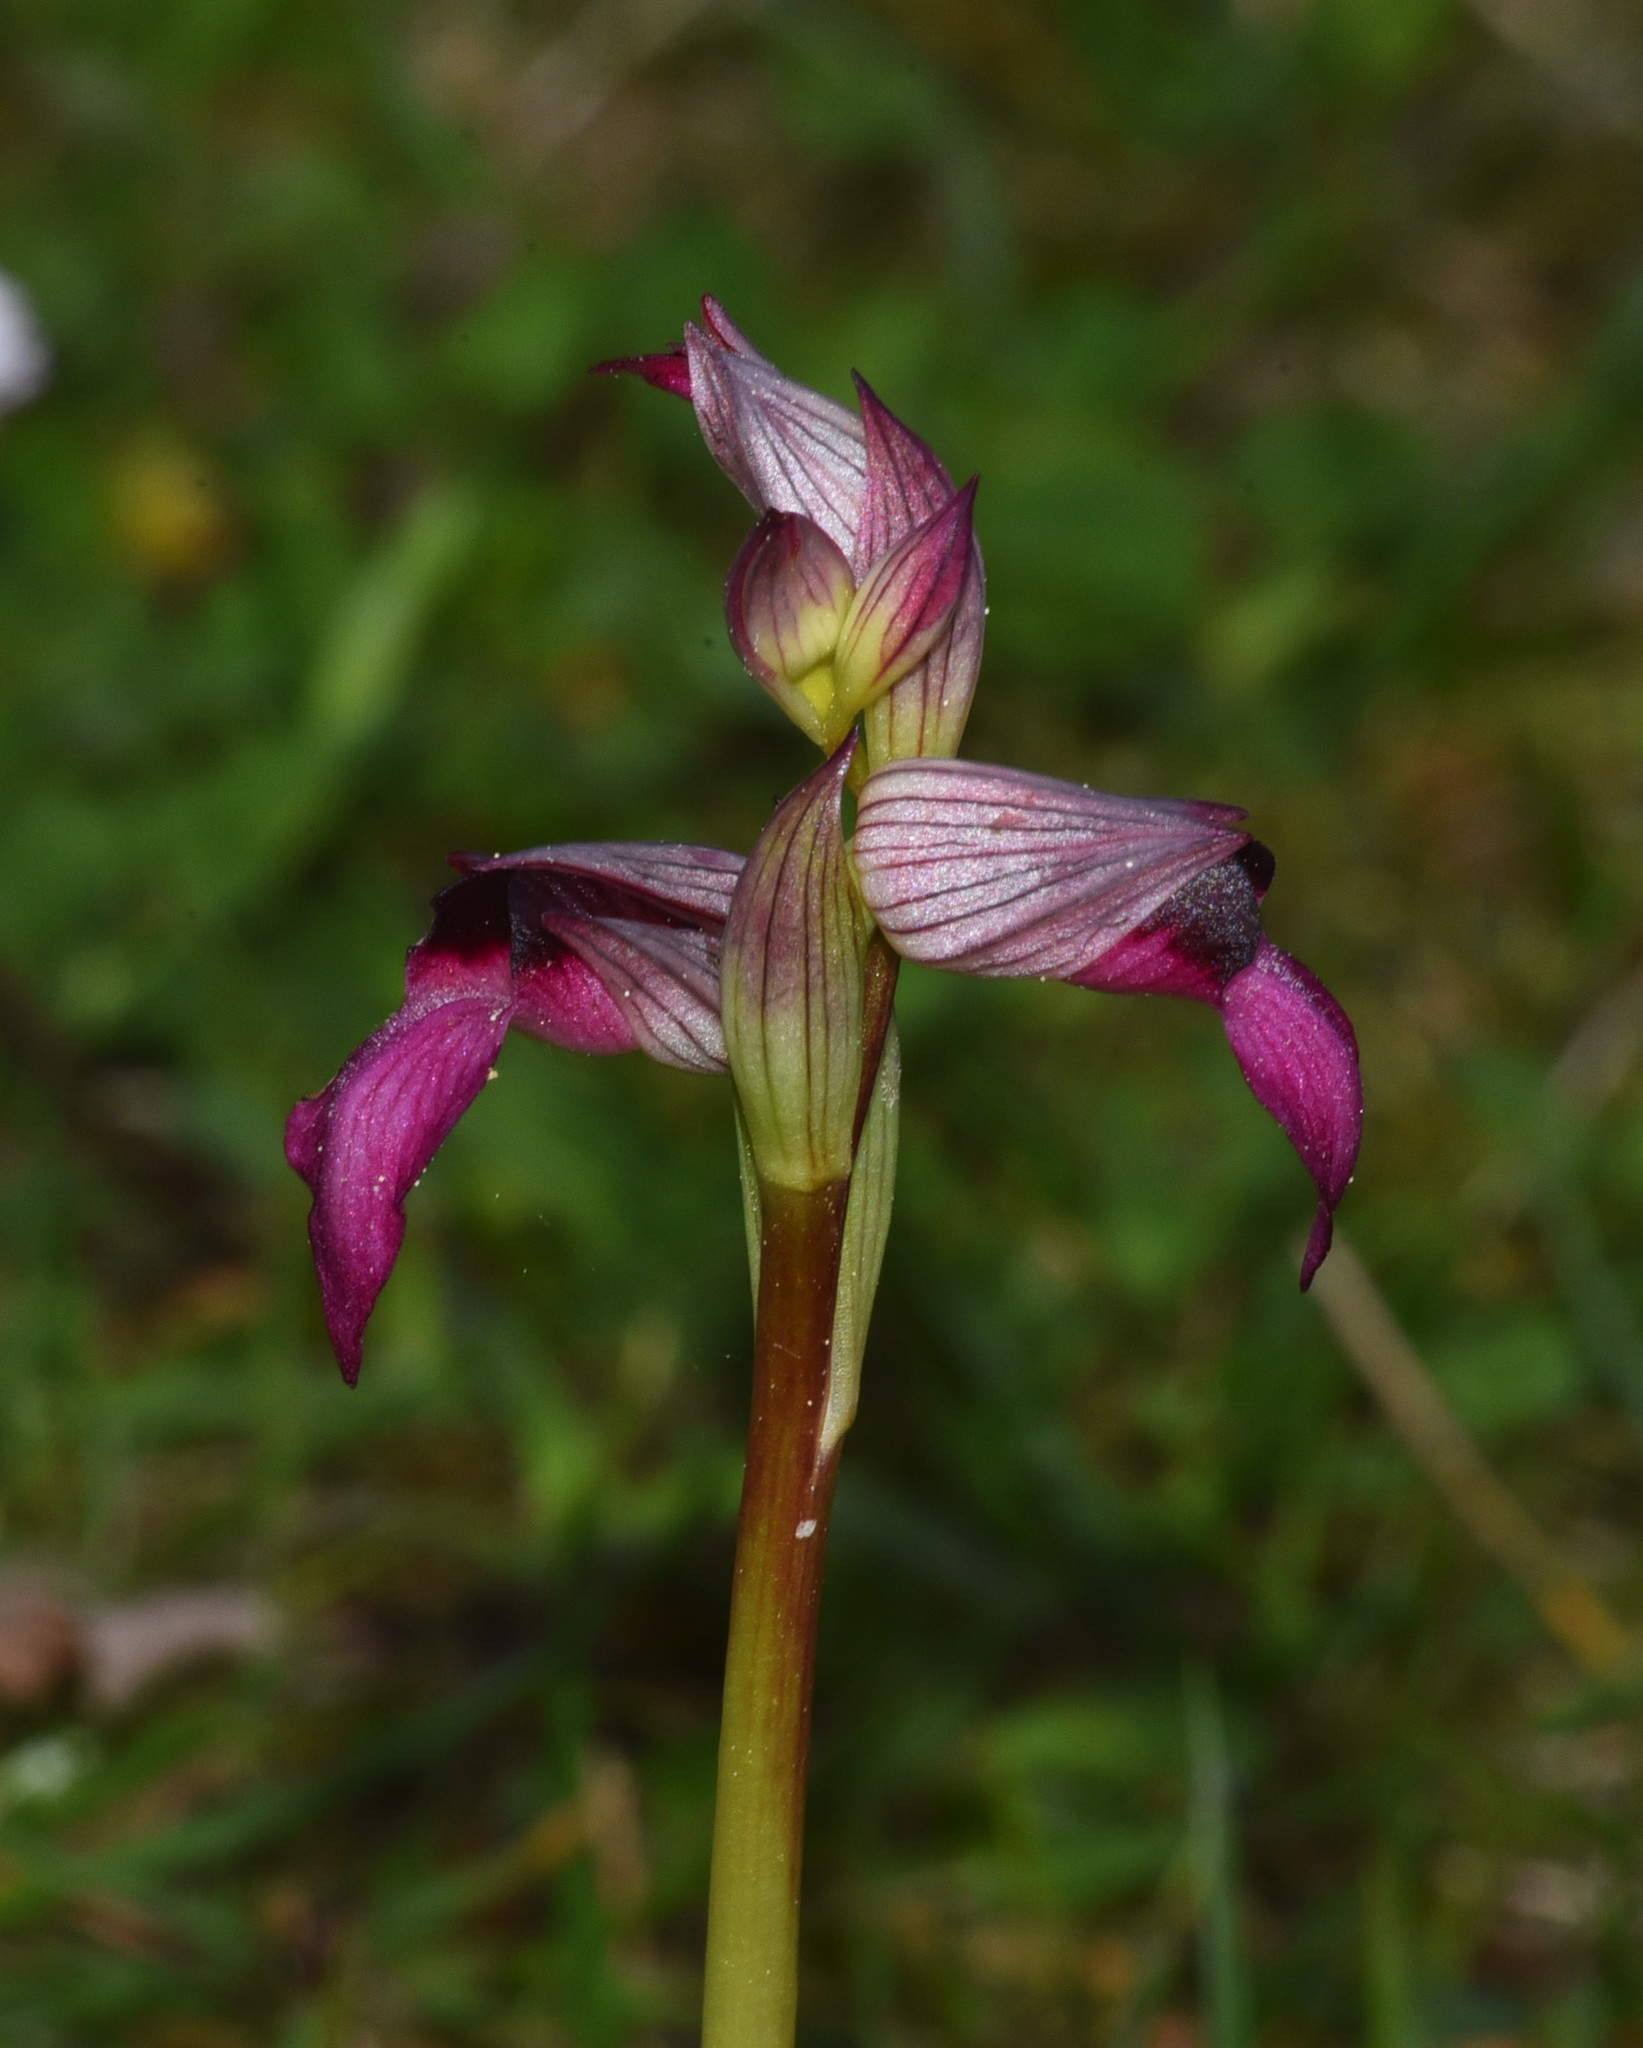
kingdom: Plantae
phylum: Tracheophyta
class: Liliopsida
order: Asparagales
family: Orchidaceae
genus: Serapias
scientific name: Serapias lingua
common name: Tongue-orchid
